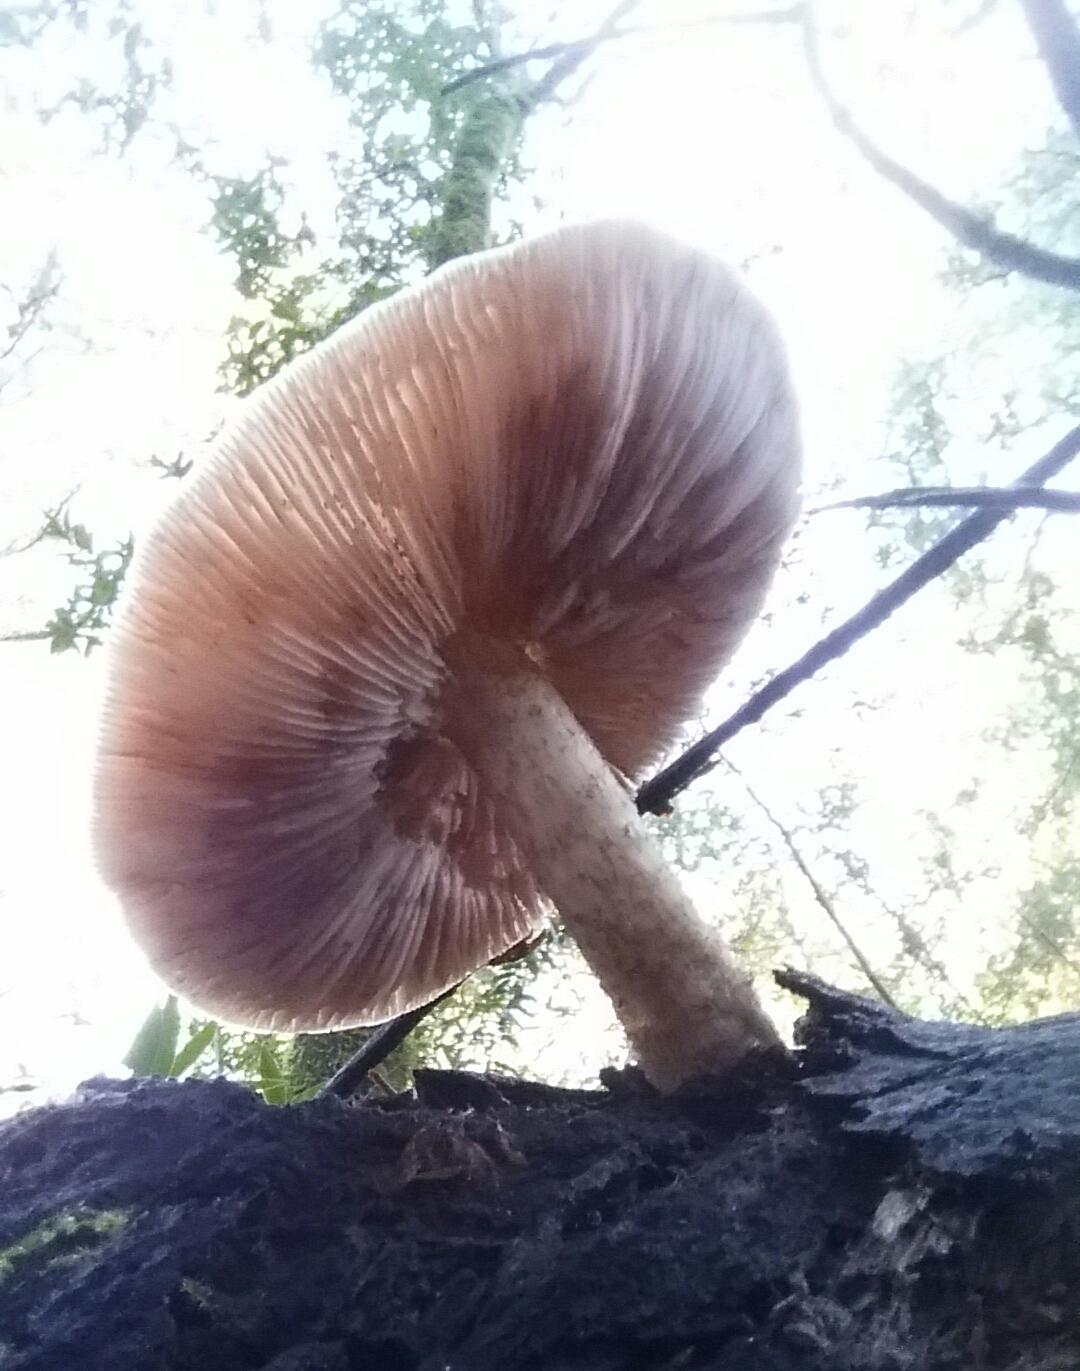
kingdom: Fungi
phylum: Basidiomycota
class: Agaricomycetes
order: Agaricales
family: Pluteaceae
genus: Pluteus
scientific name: Pluteus exilis
